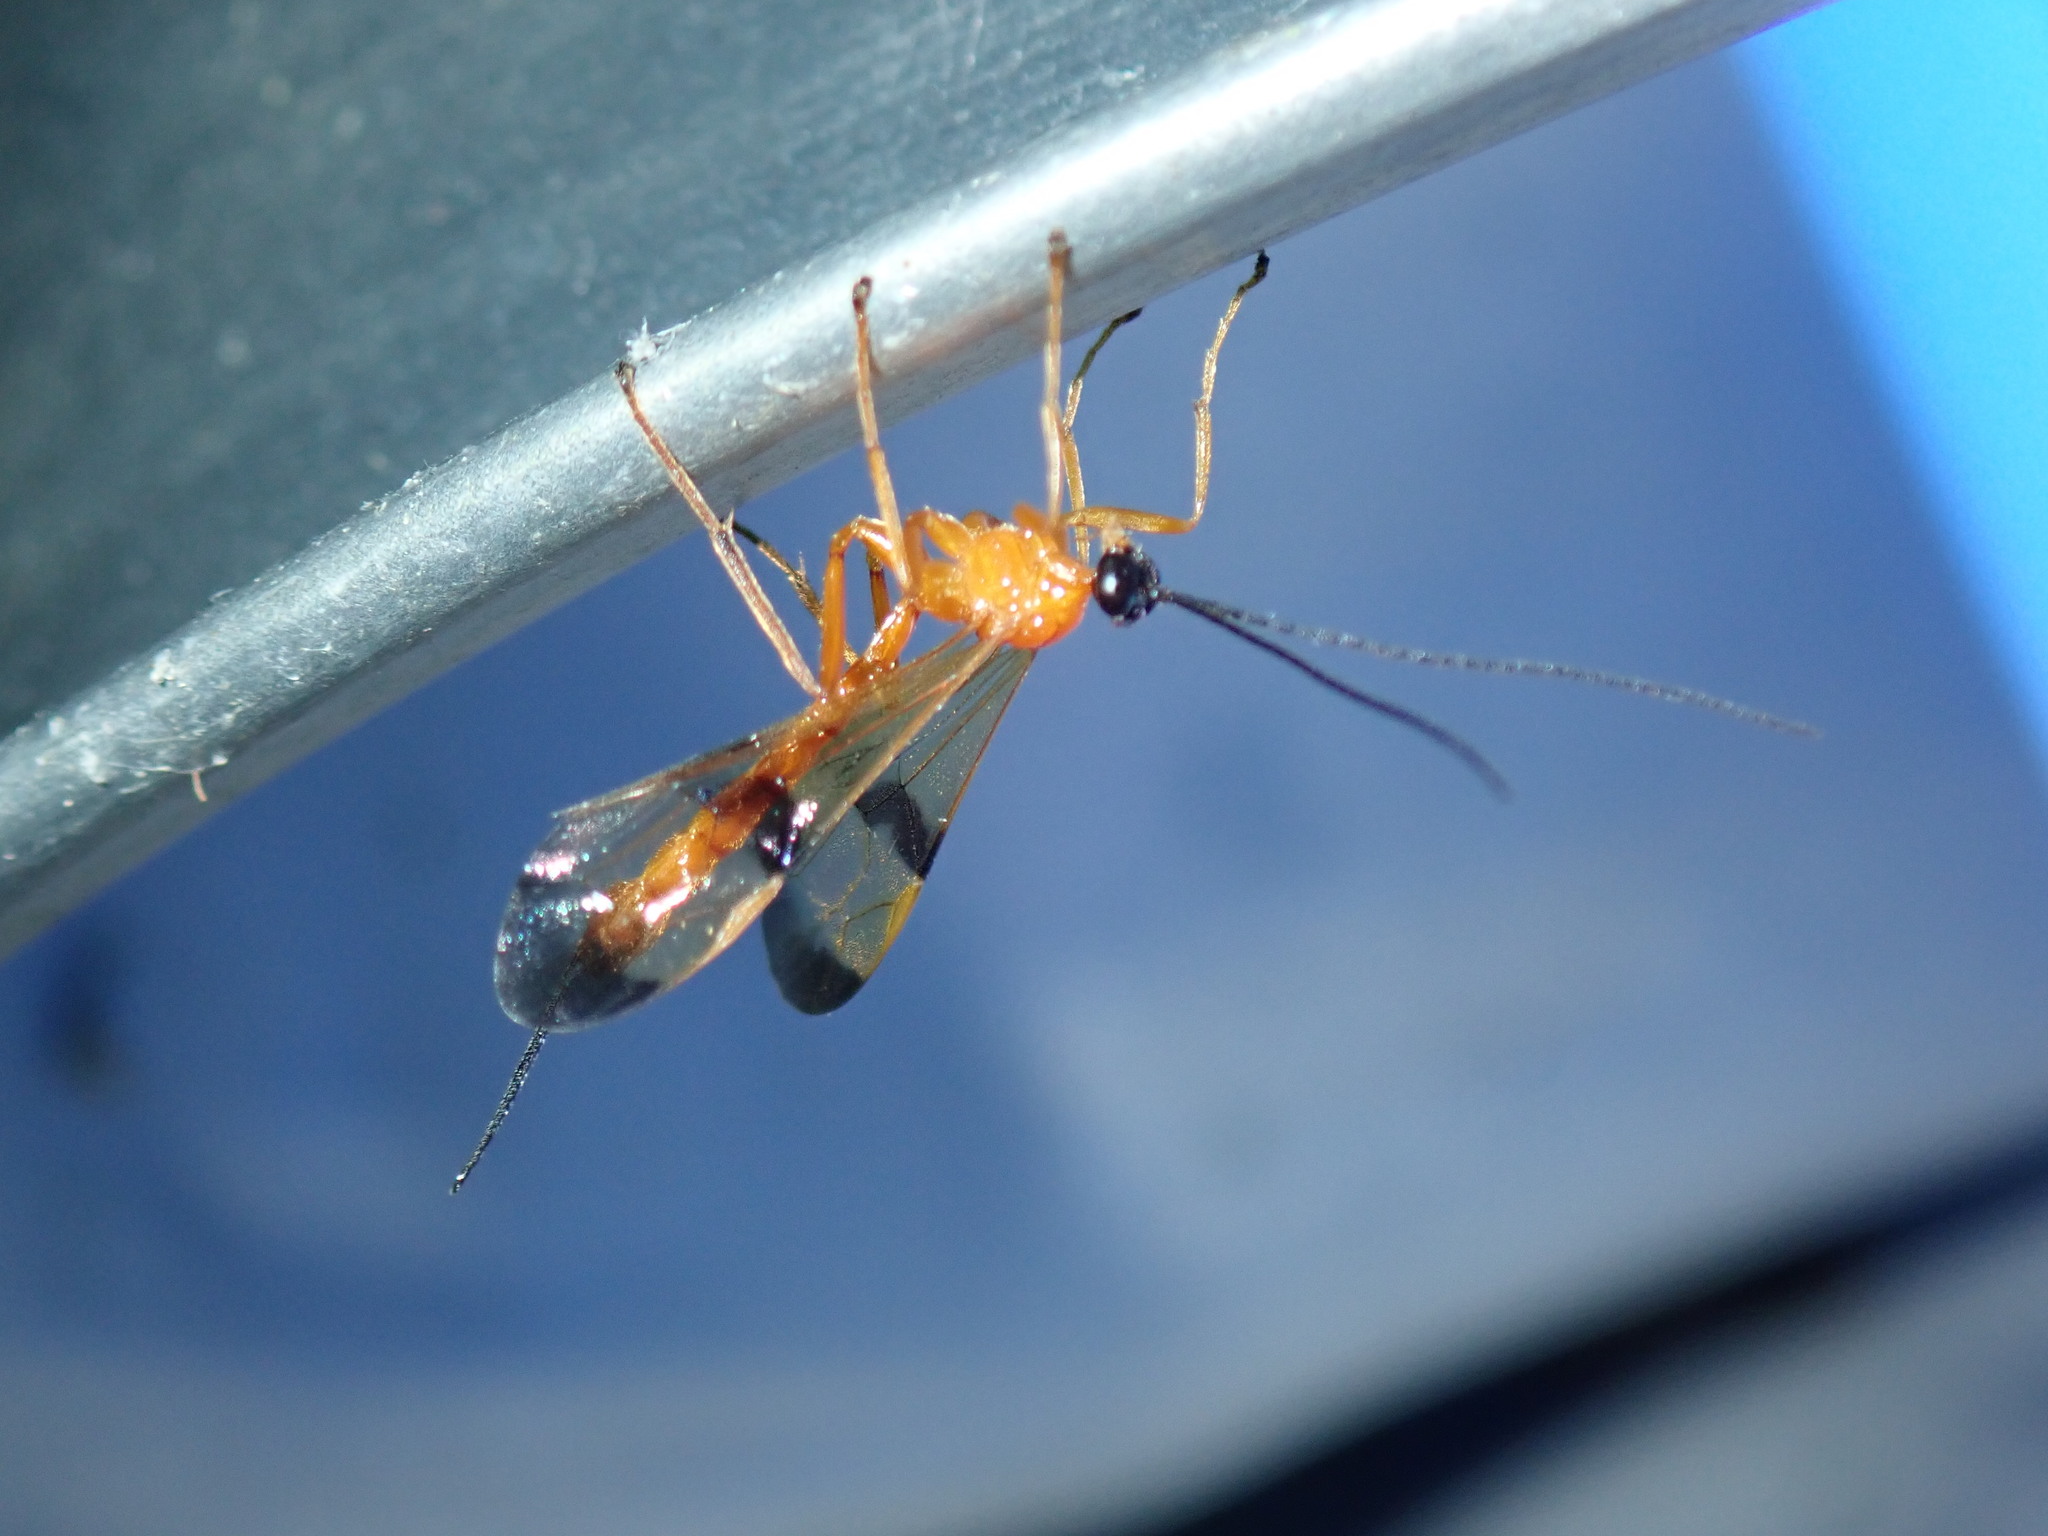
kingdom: Animalia
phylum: Arthropoda
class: Insecta
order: Hymenoptera
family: Ichneumonidae
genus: Acrotaphus
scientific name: Acrotaphus wiltii
